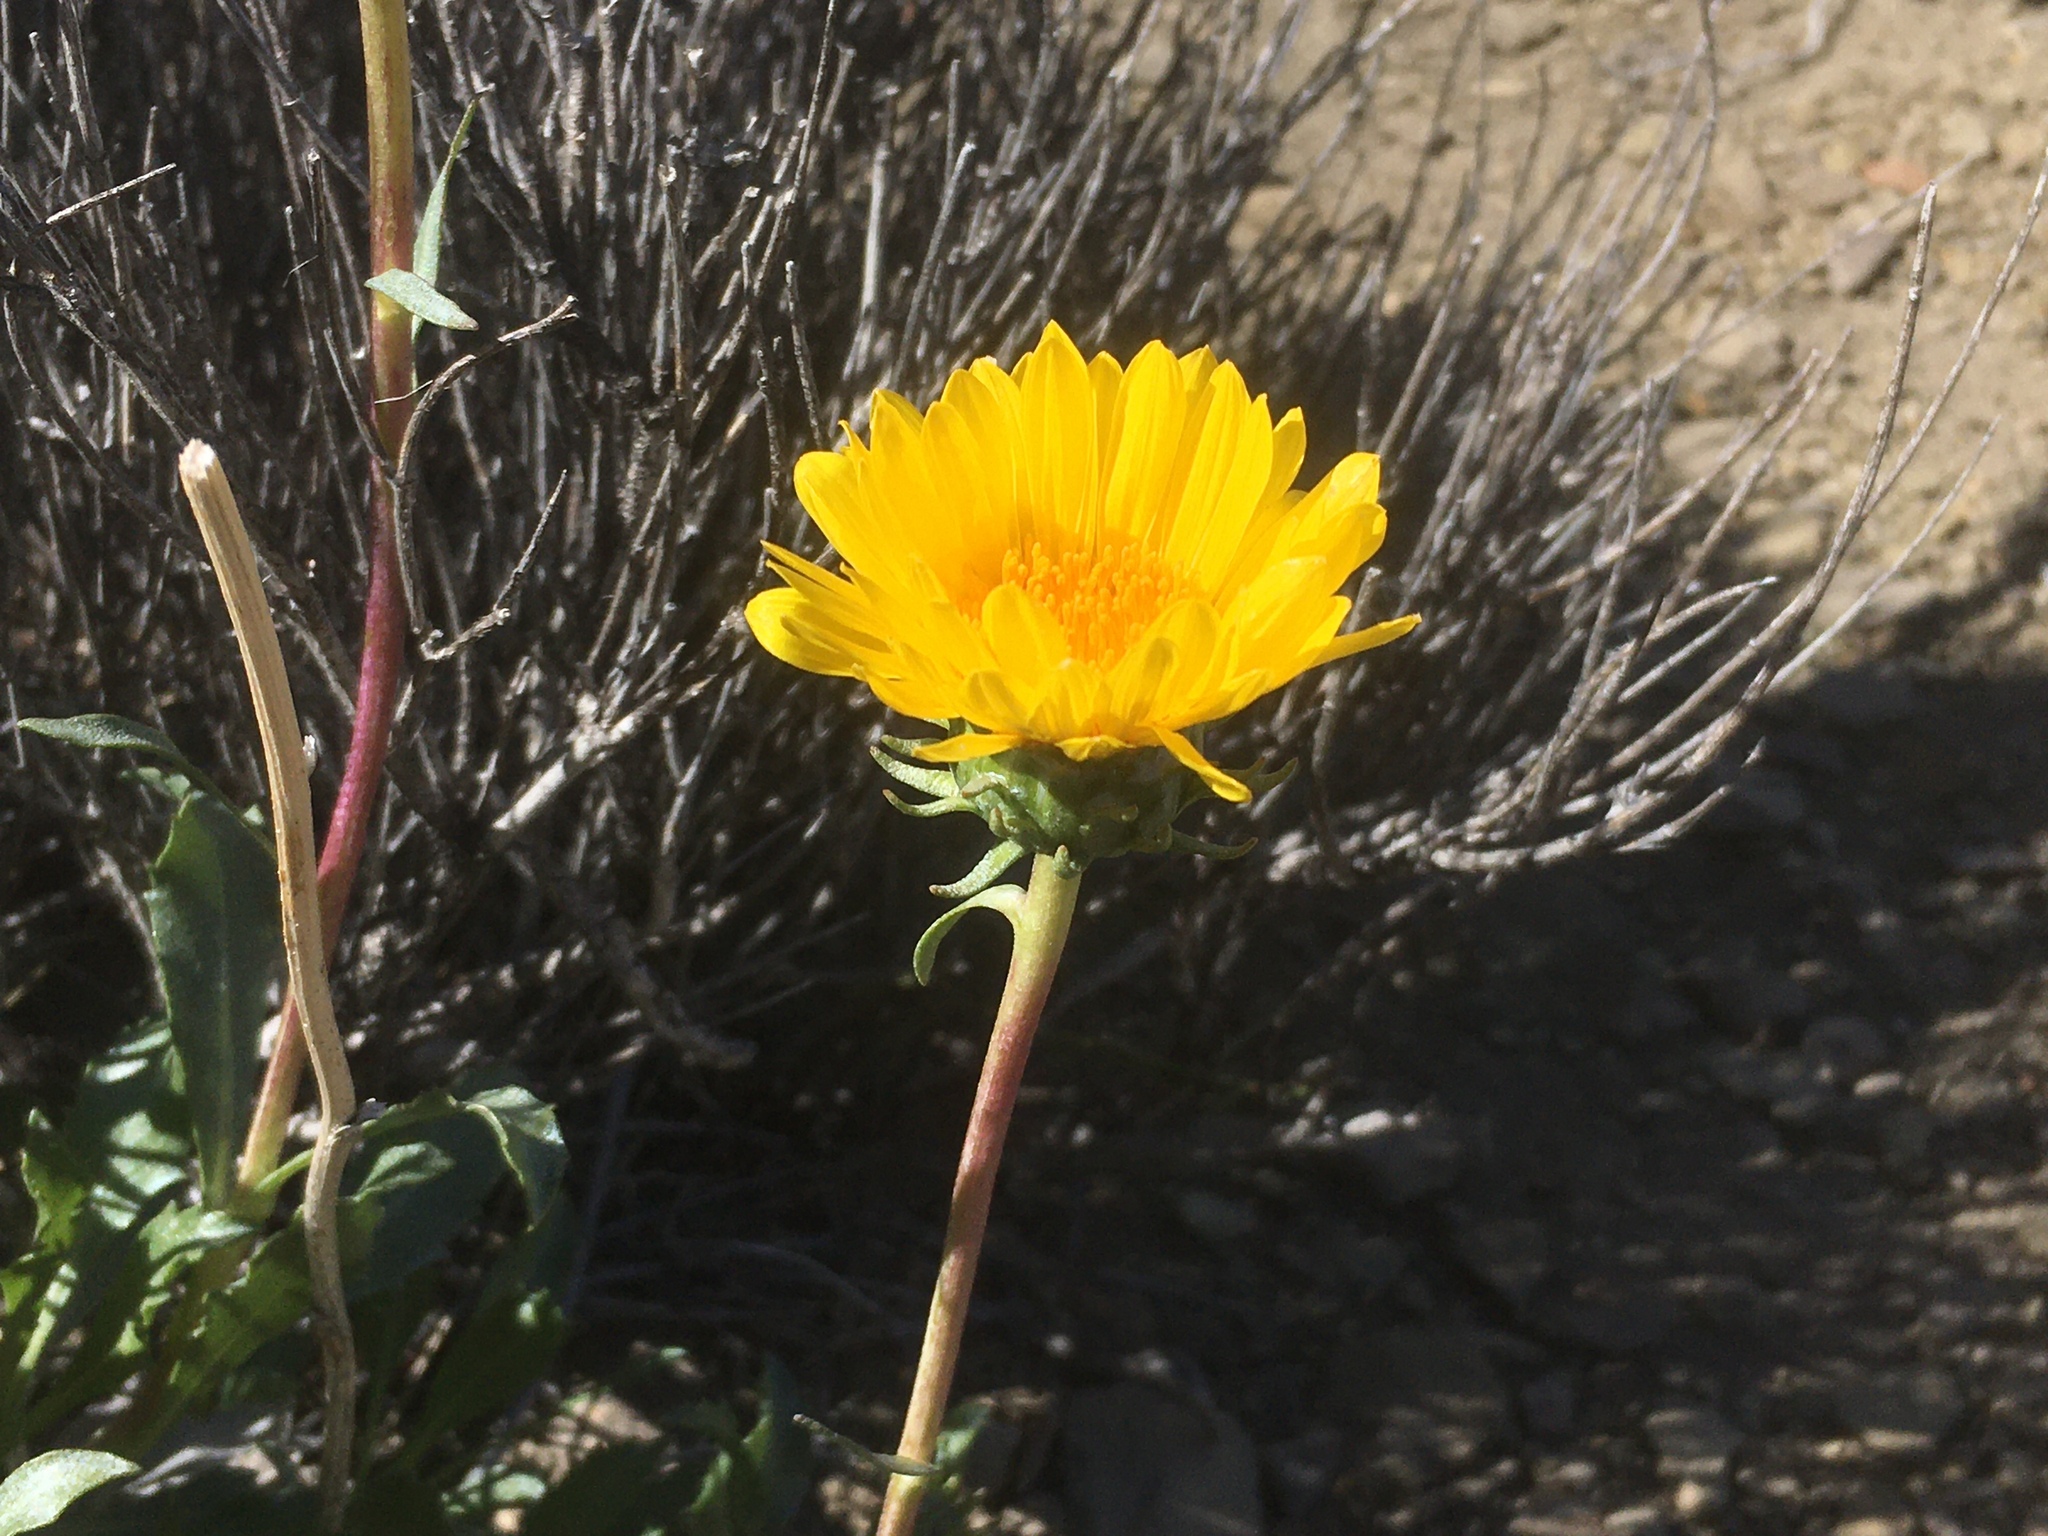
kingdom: Plantae
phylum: Tracheophyta
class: Magnoliopsida
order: Asterales
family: Asteraceae
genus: Grindelia
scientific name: Grindelia chiloensis
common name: Shrubby gumweed
